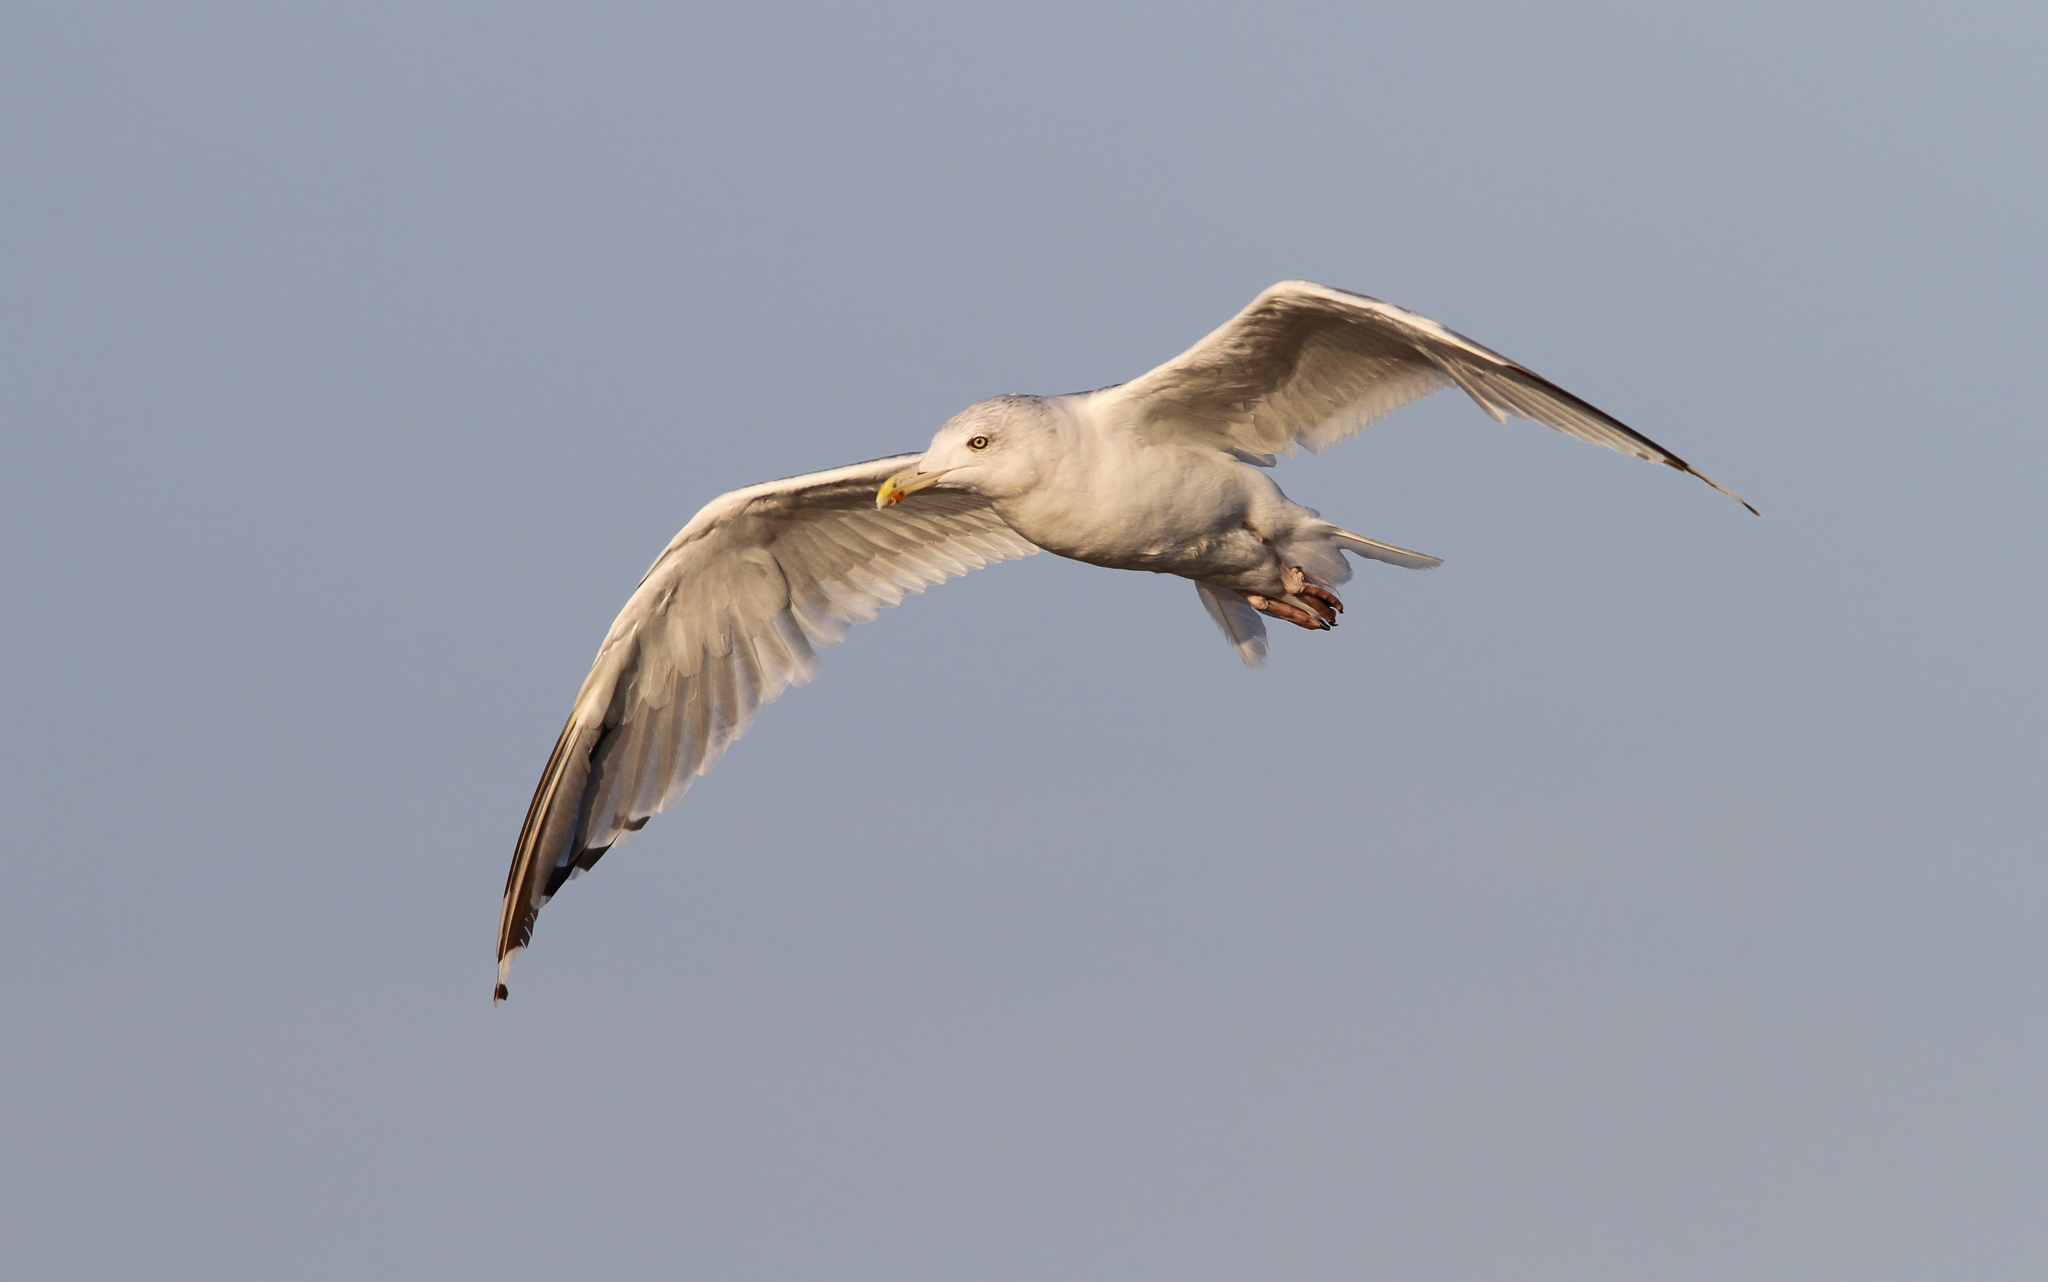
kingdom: Animalia
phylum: Chordata
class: Aves
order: Charadriiformes
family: Laridae
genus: Larus
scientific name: Larus argentatus
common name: Herring gull
